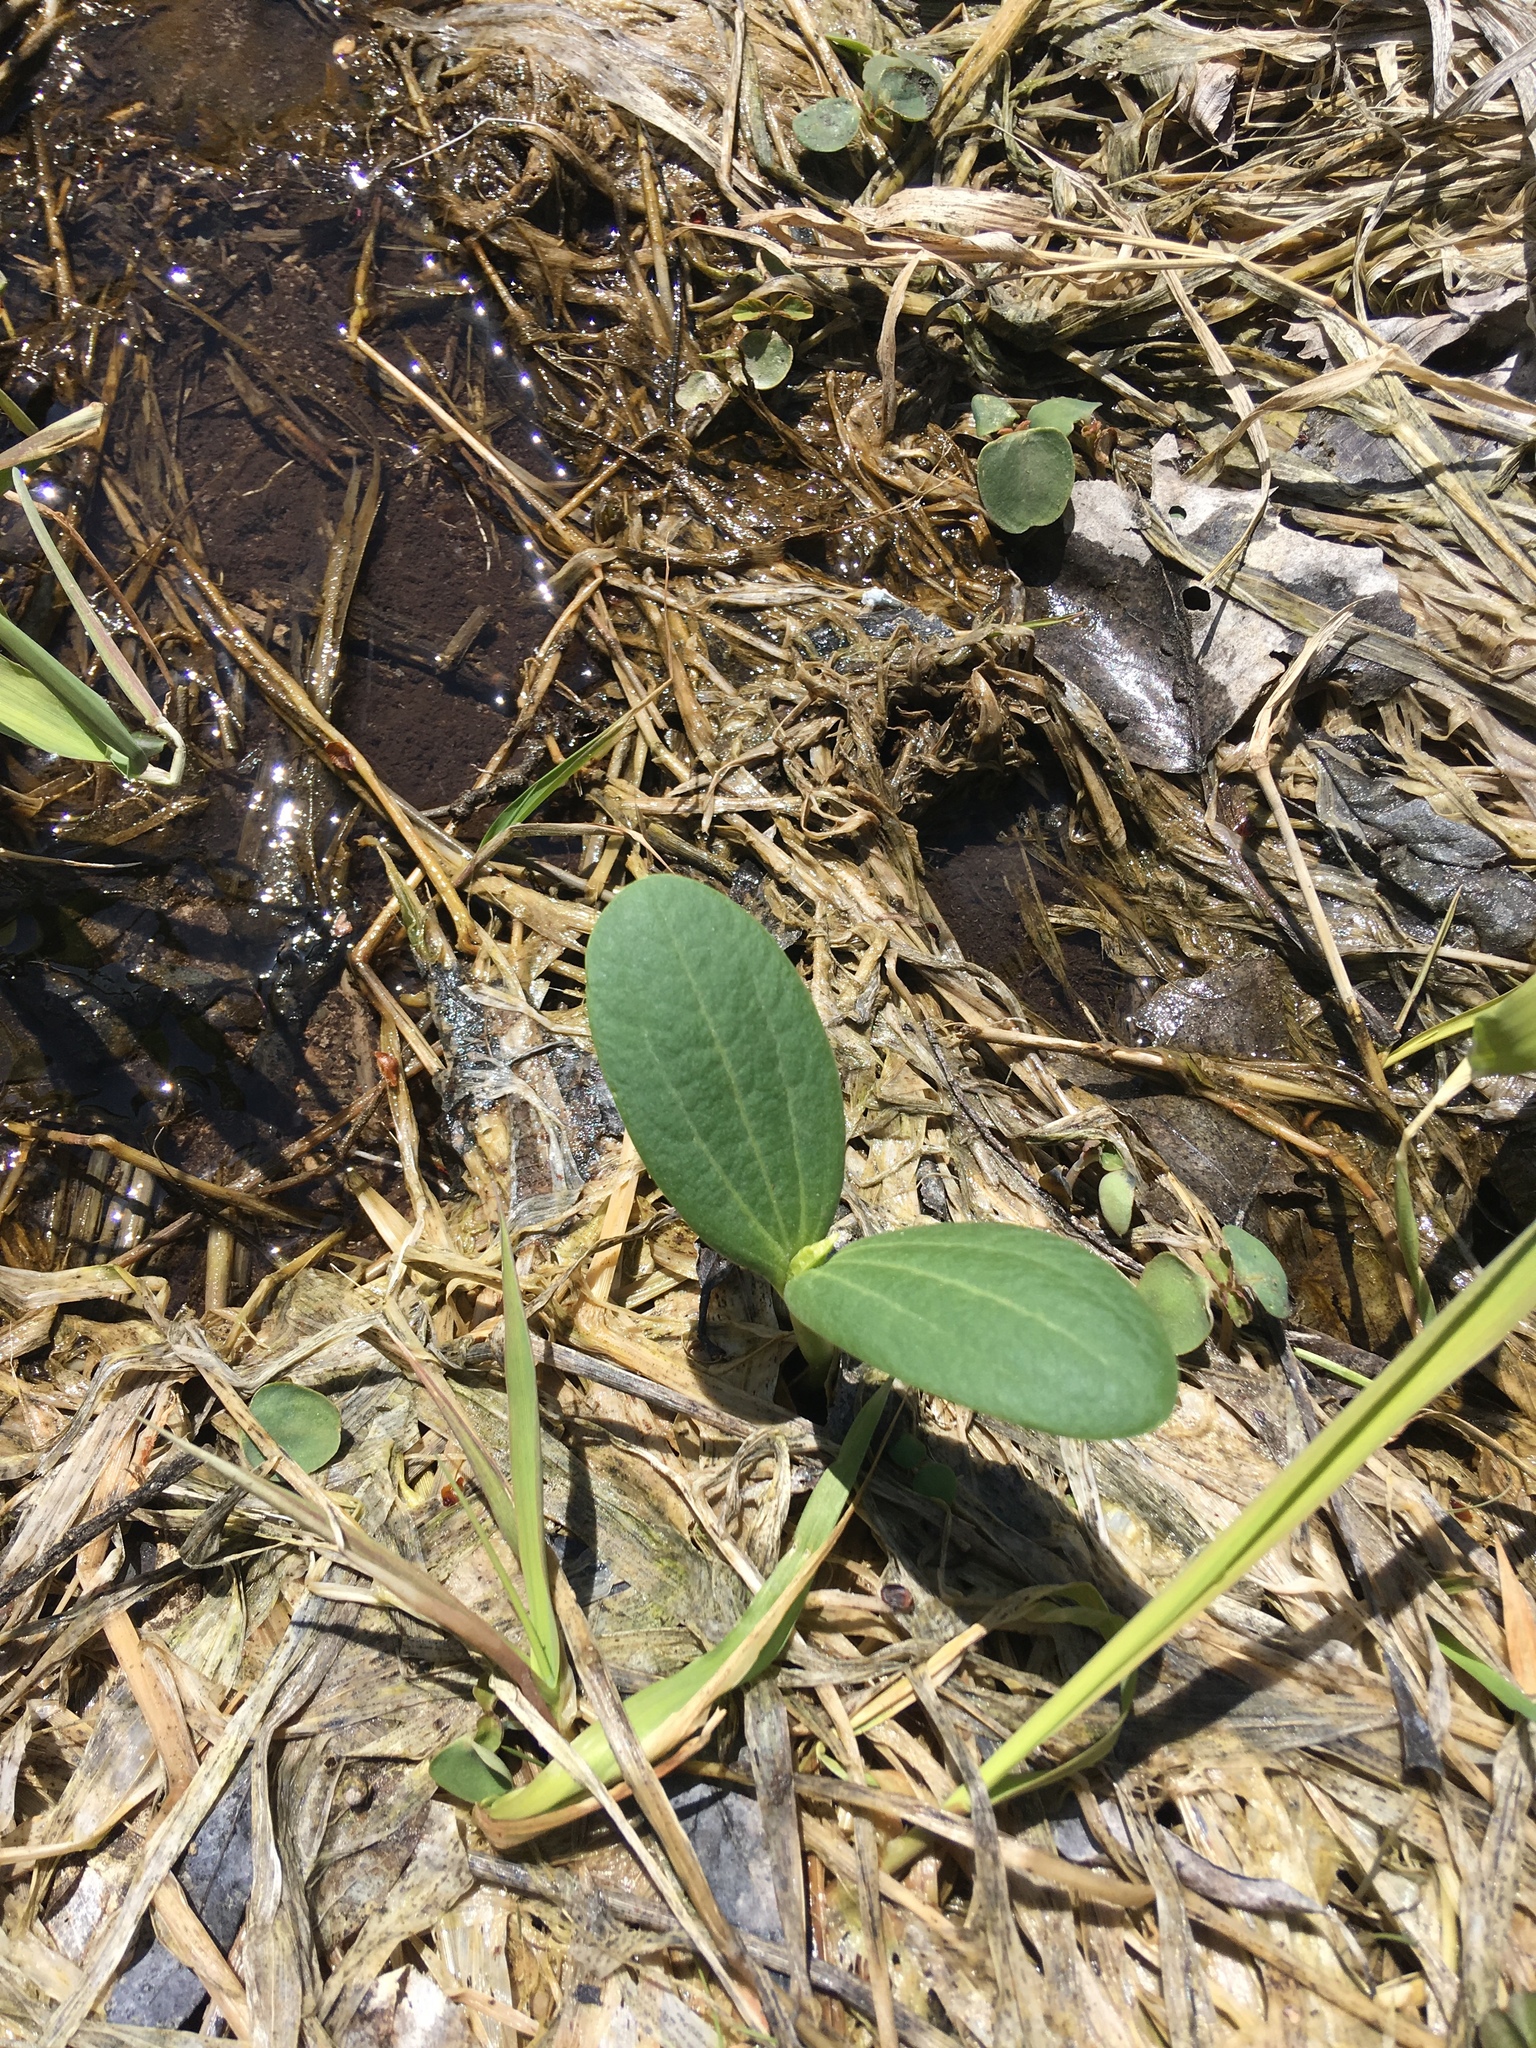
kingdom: Plantae
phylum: Tracheophyta
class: Magnoliopsida
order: Cucurbitales
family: Cucurbitaceae
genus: Echinocystis
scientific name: Echinocystis lobata
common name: Wild cucumber
